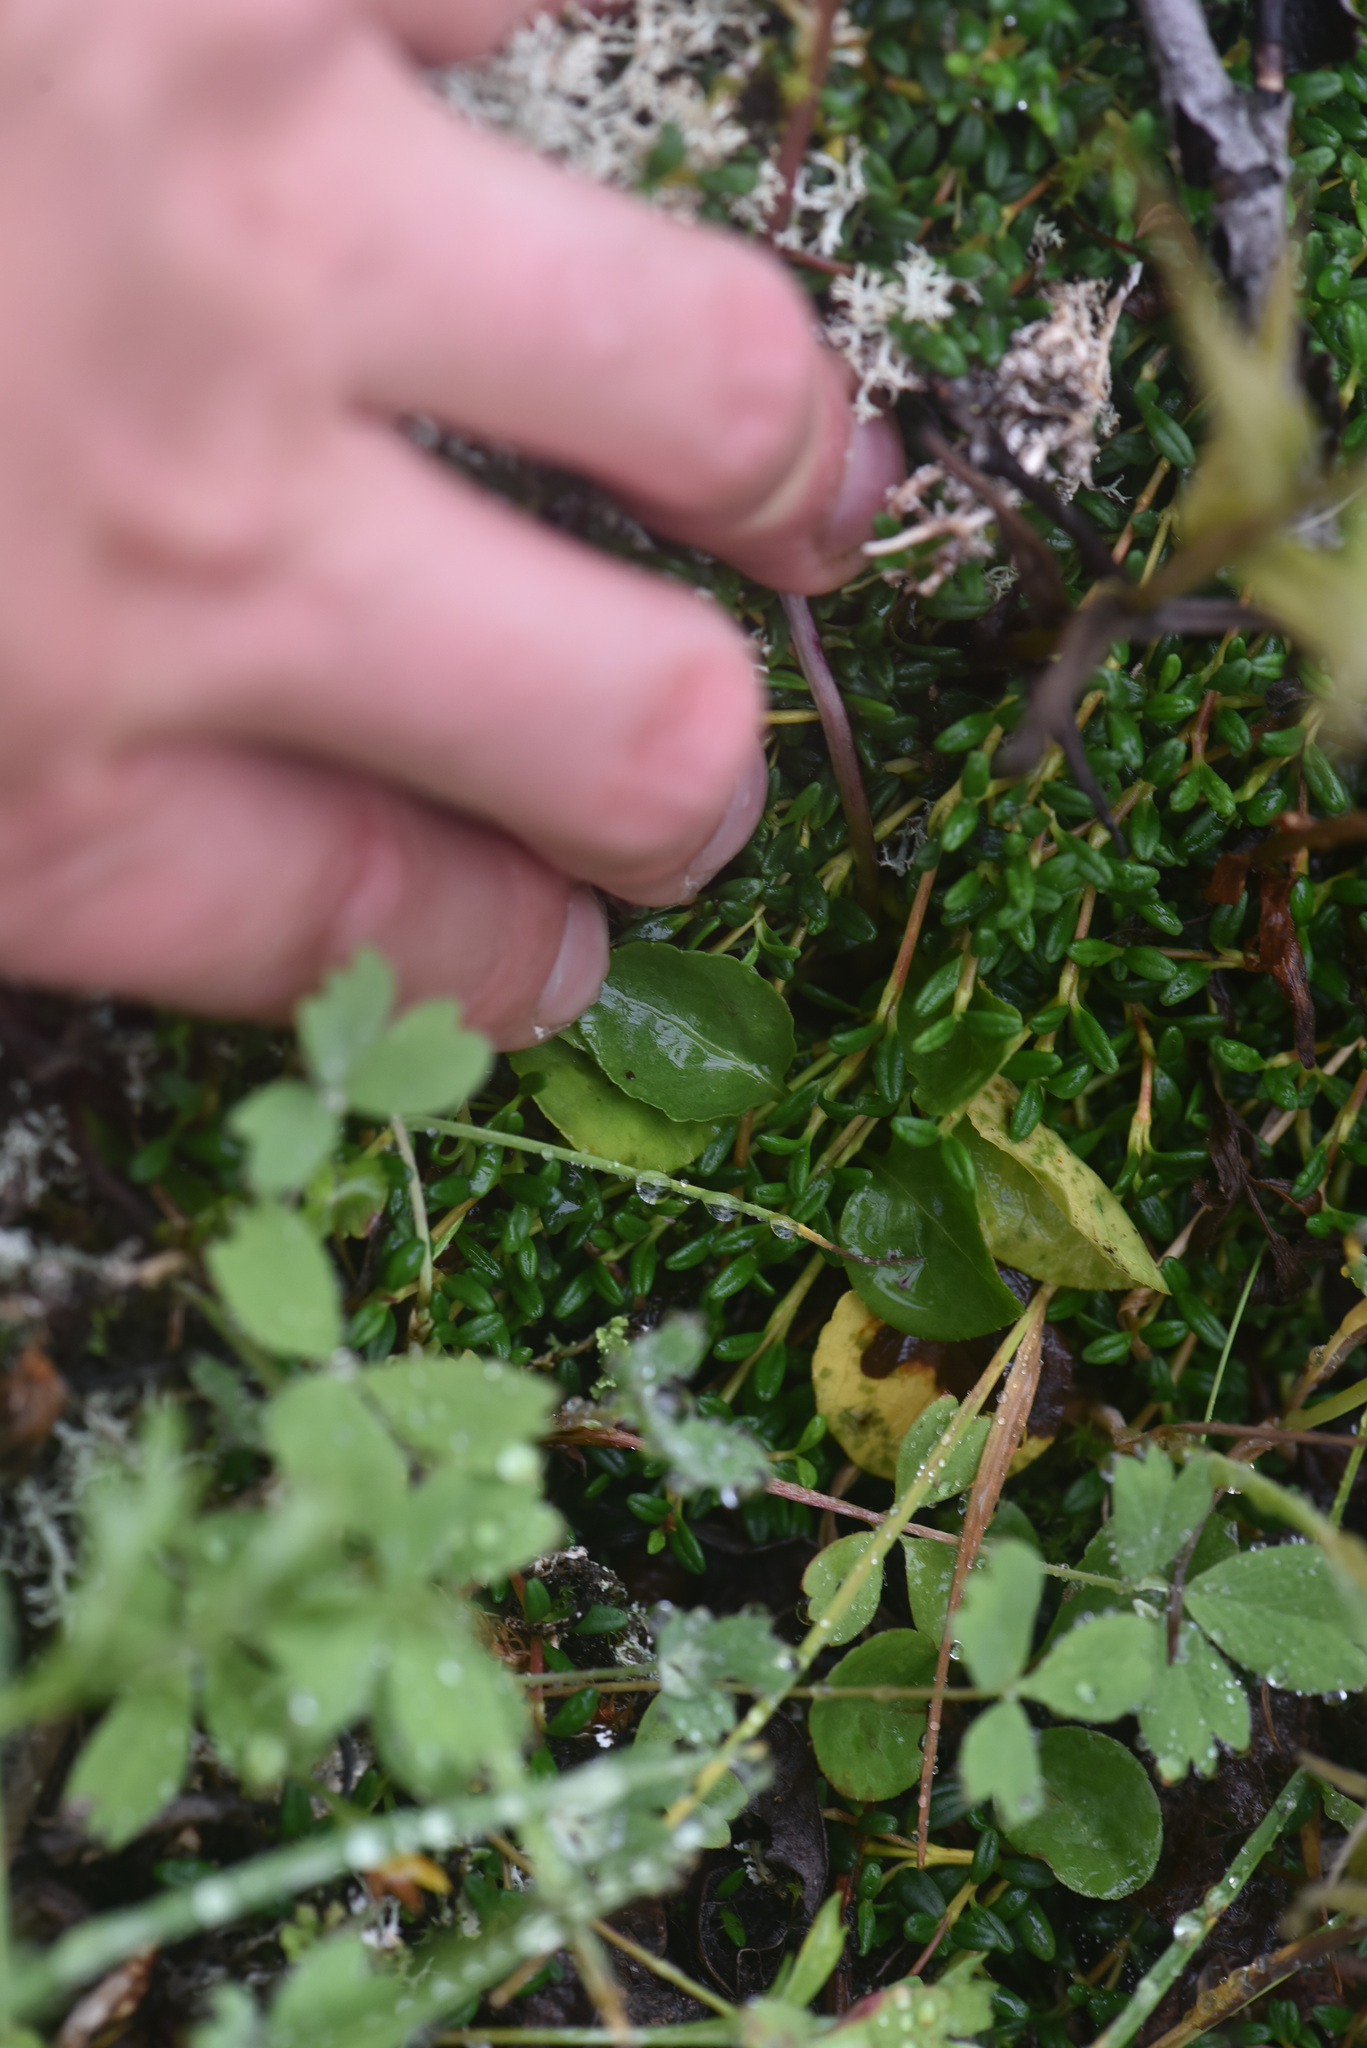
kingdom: Plantae
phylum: Tracheophyta
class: Magnoliopsida
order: Ericales
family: Ericaceae
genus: Pyrola
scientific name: Pyrola minor
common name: Common wintergreen
